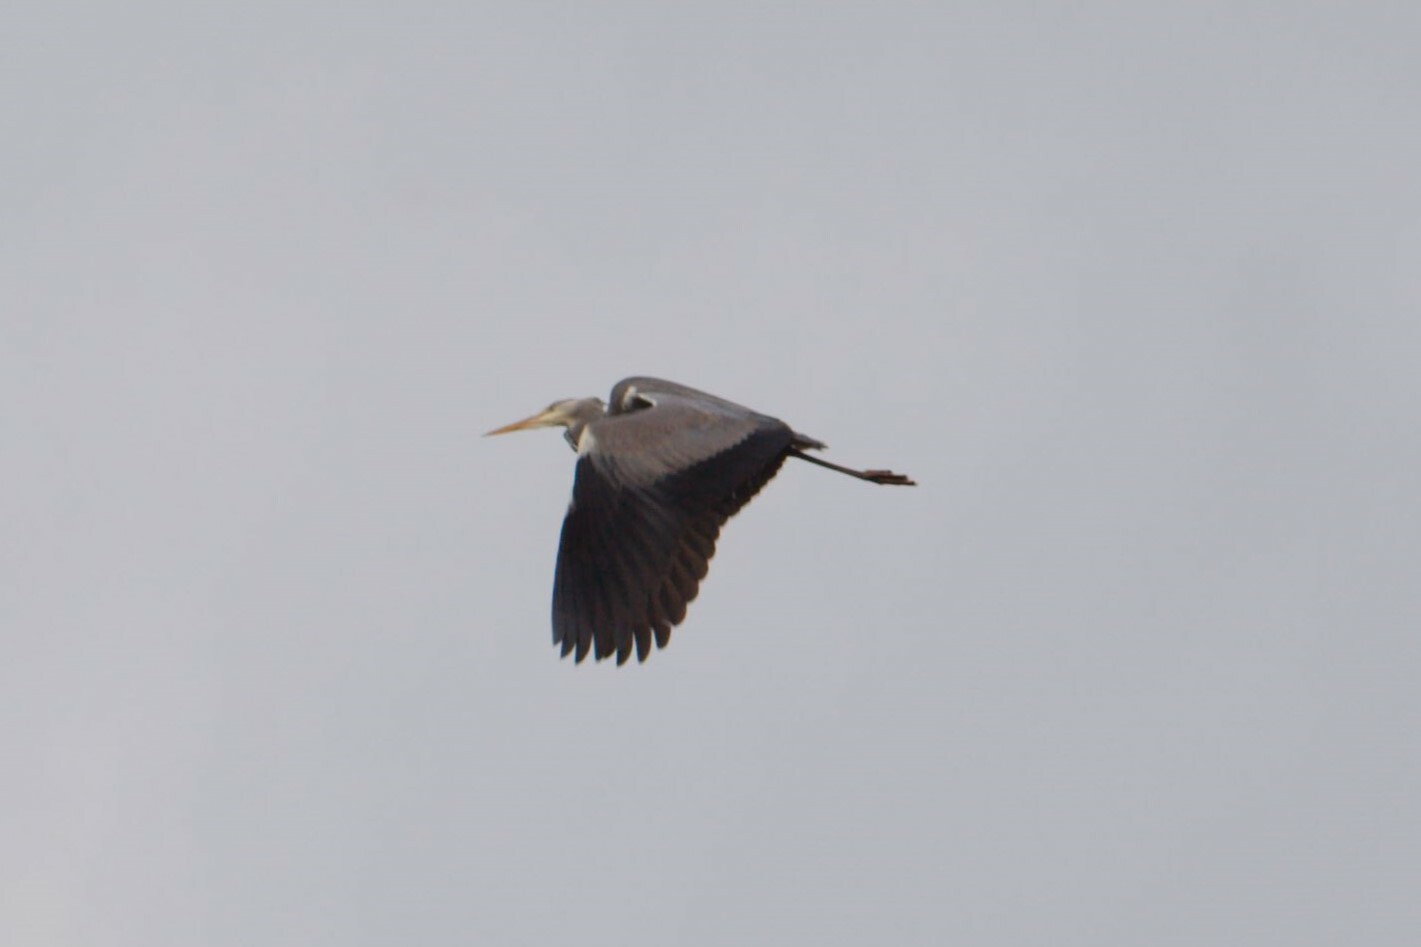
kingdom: Animalia
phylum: Chordata
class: Aves
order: Pelecaniformes
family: Ardeidae
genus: Ardea
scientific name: Ardea cinerea
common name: Grey heron
